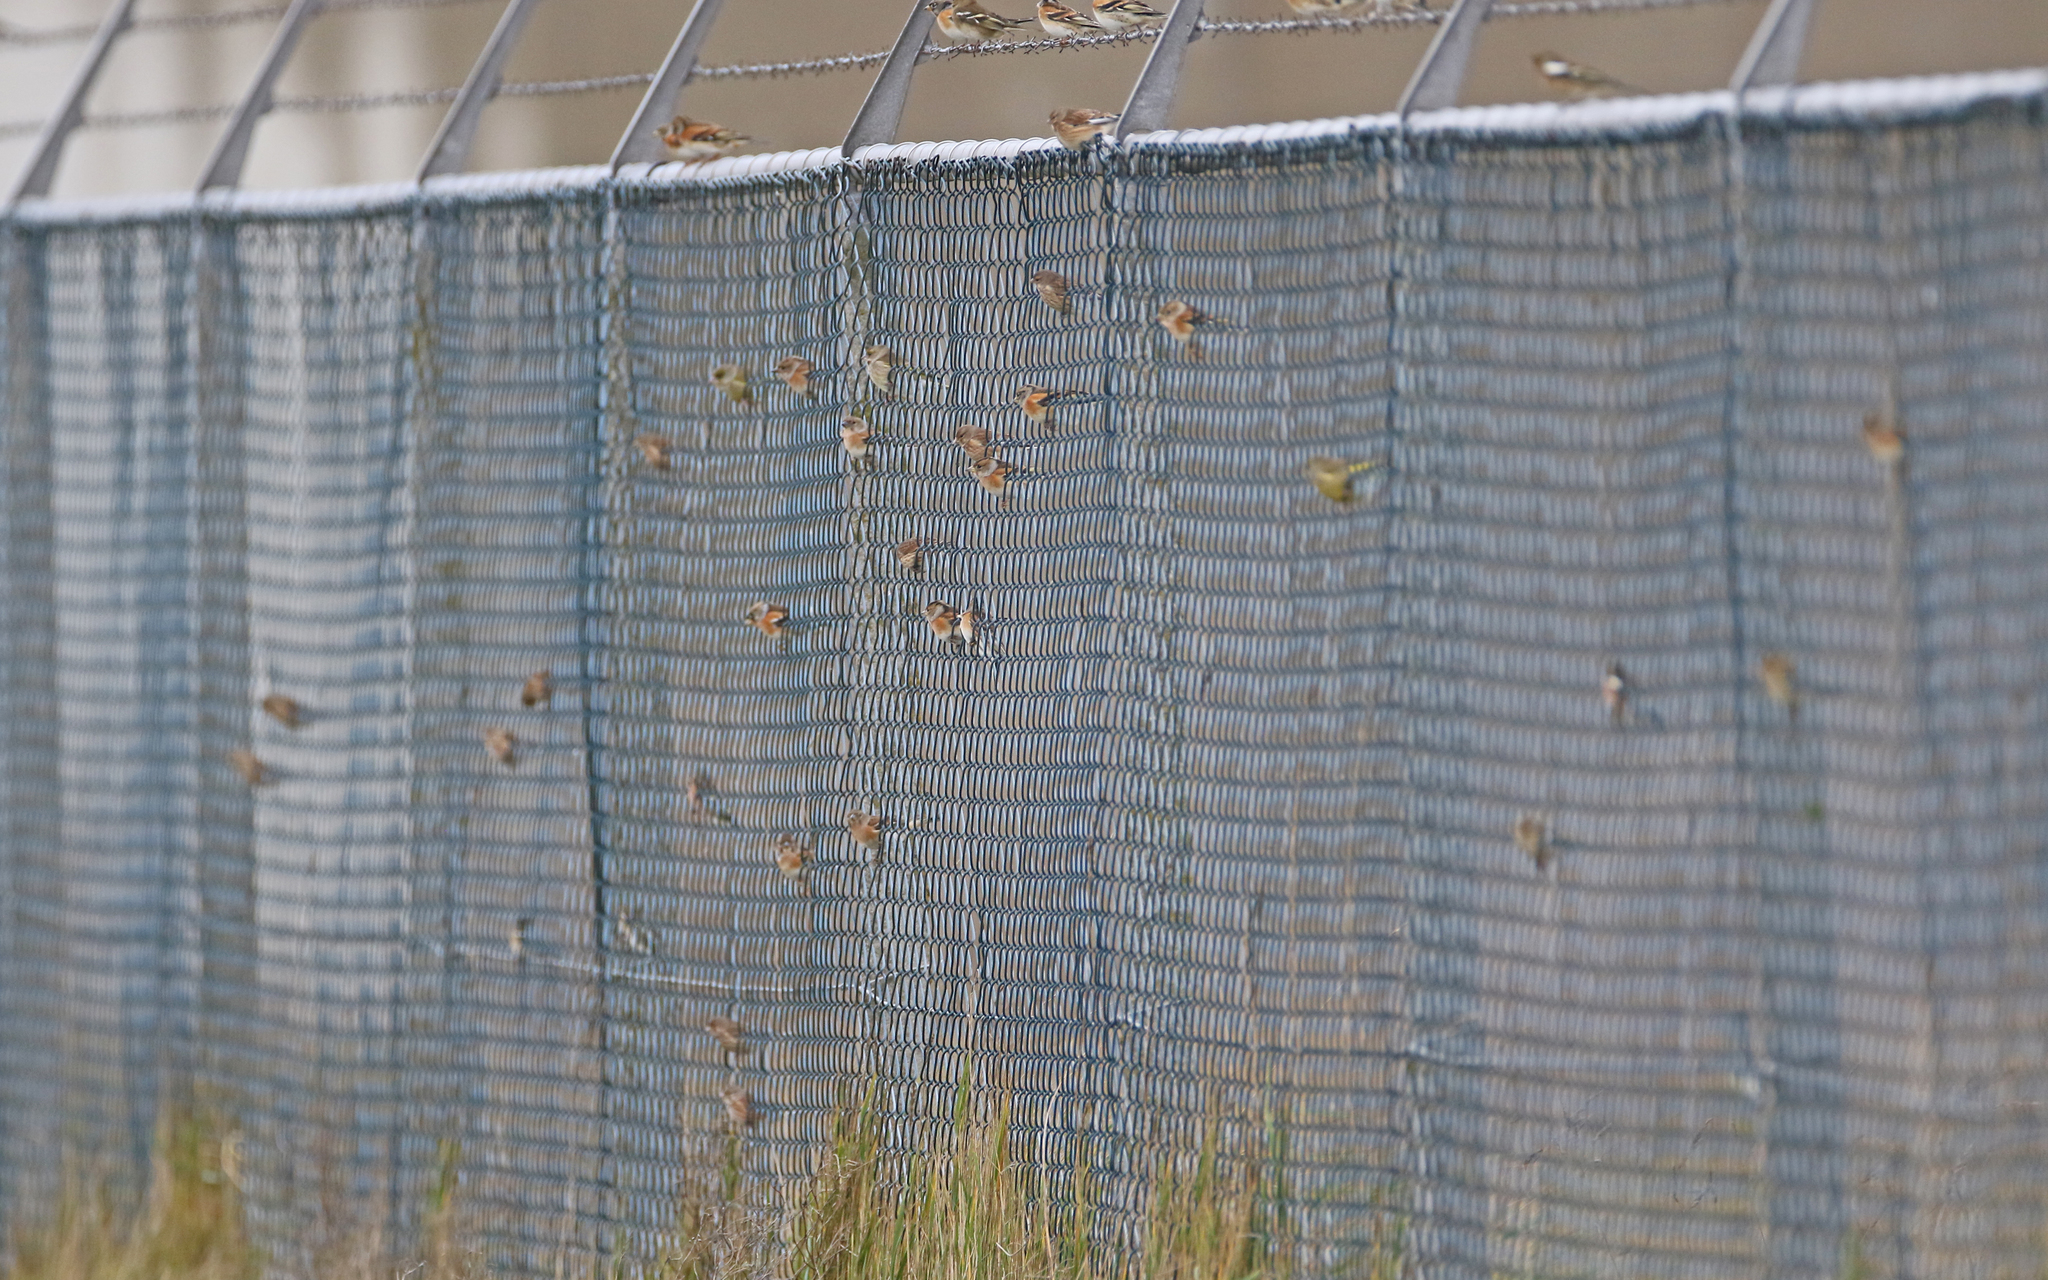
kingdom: Animalia
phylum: Chordata
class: Aves
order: Passeriformes
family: Fringillidae
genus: Fringilla
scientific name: Fringilla montifringilla
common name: Brambling
